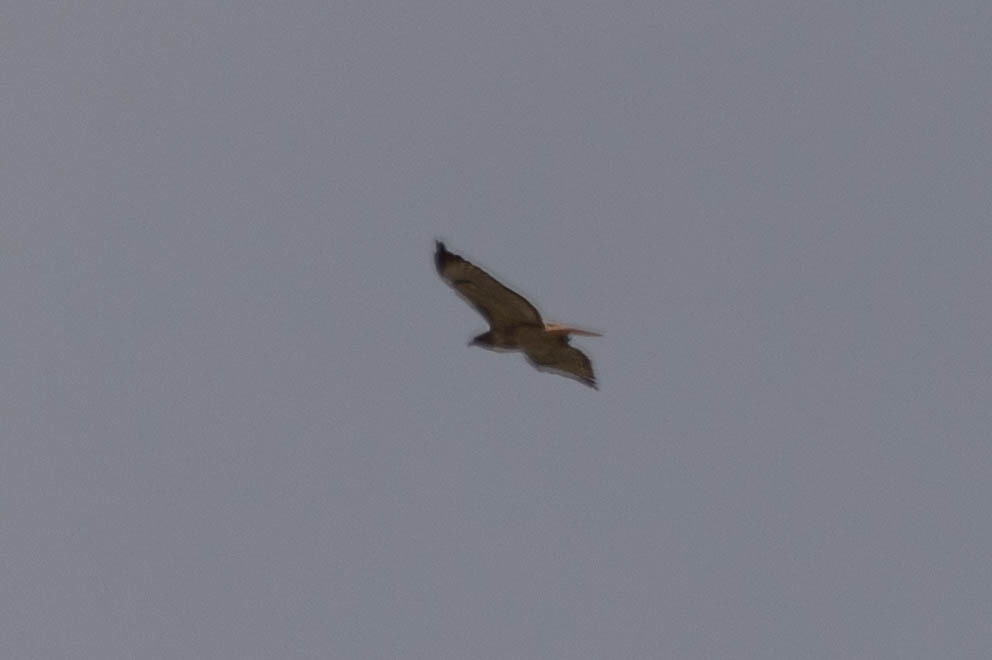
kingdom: Animalia
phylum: Chordata
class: Aves
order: Accipitriformes
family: Accipitridae
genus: Buteo
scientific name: Buteo jamaicensis
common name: Red-tailed hawk
